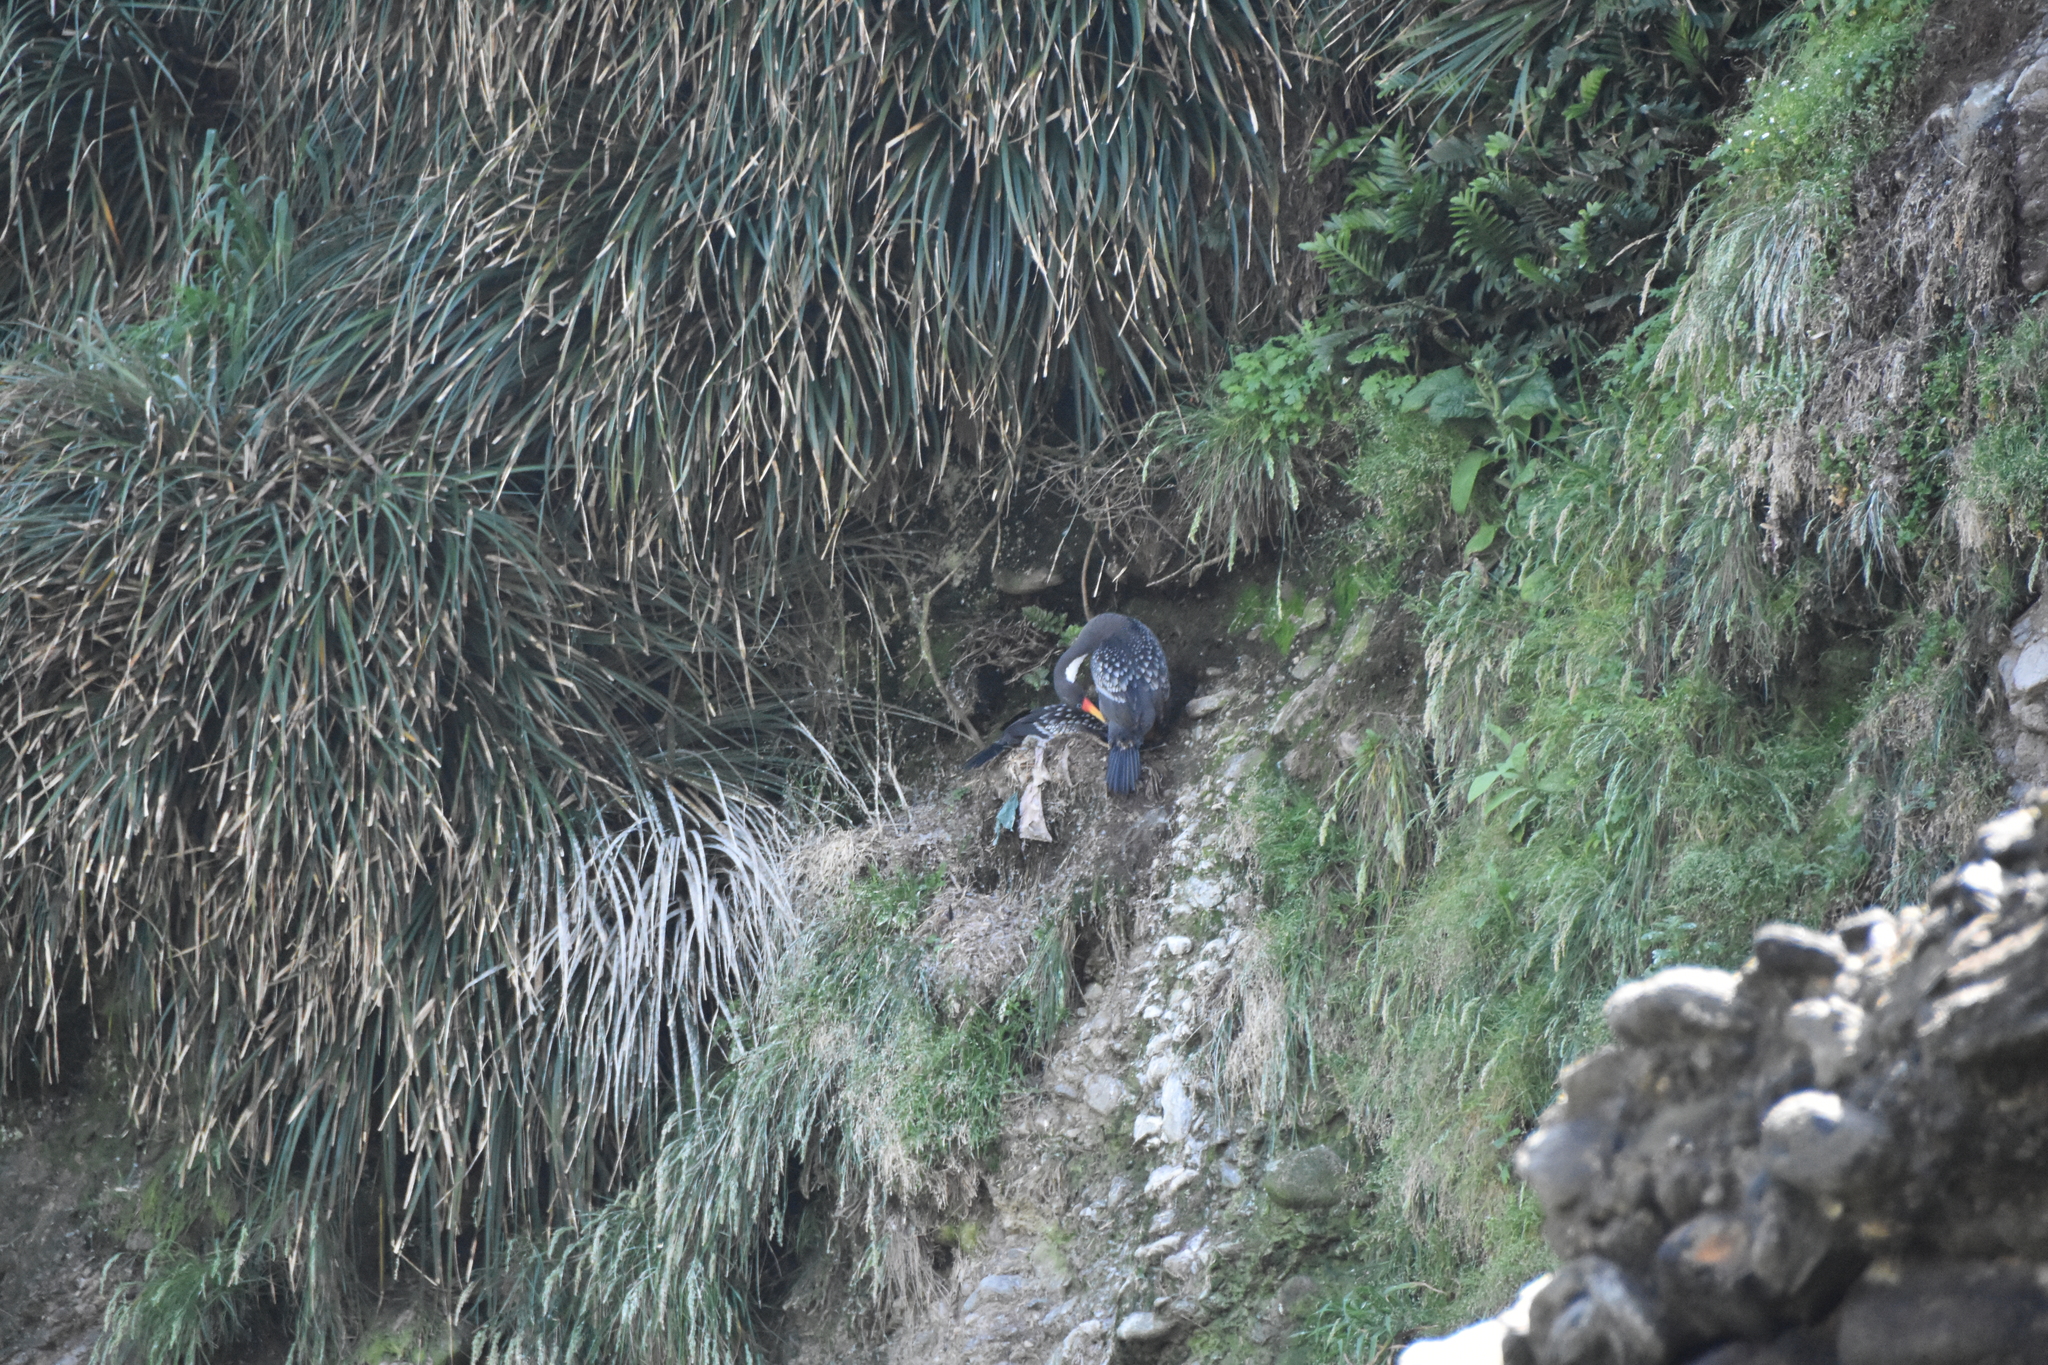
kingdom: Animalia
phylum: Chordata
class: Aves
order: Suliformes
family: Phalacrocoracidae
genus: Phalacrocorax
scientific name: Phalacrocorax gaimardi
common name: Red-legged cormorant
